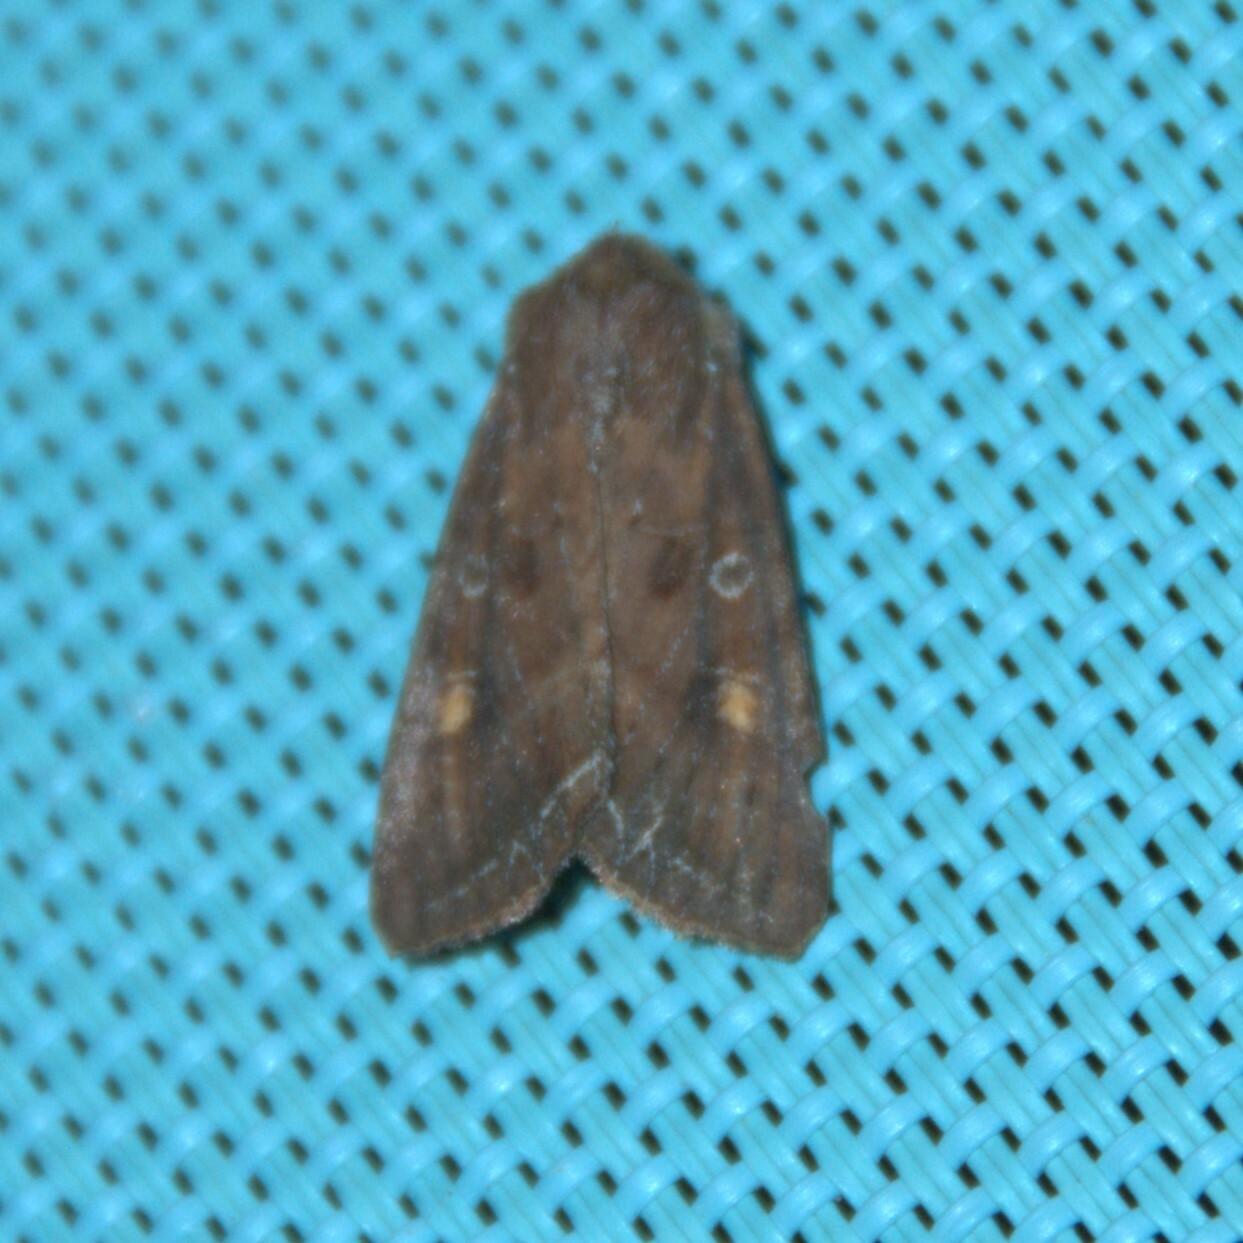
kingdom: Animalia
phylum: Arthropoda
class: Insecta
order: Lepidoptera
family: Noctuidae
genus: Lacanobia
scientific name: Lacanobia oleracea
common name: Bright-line brown-eye
